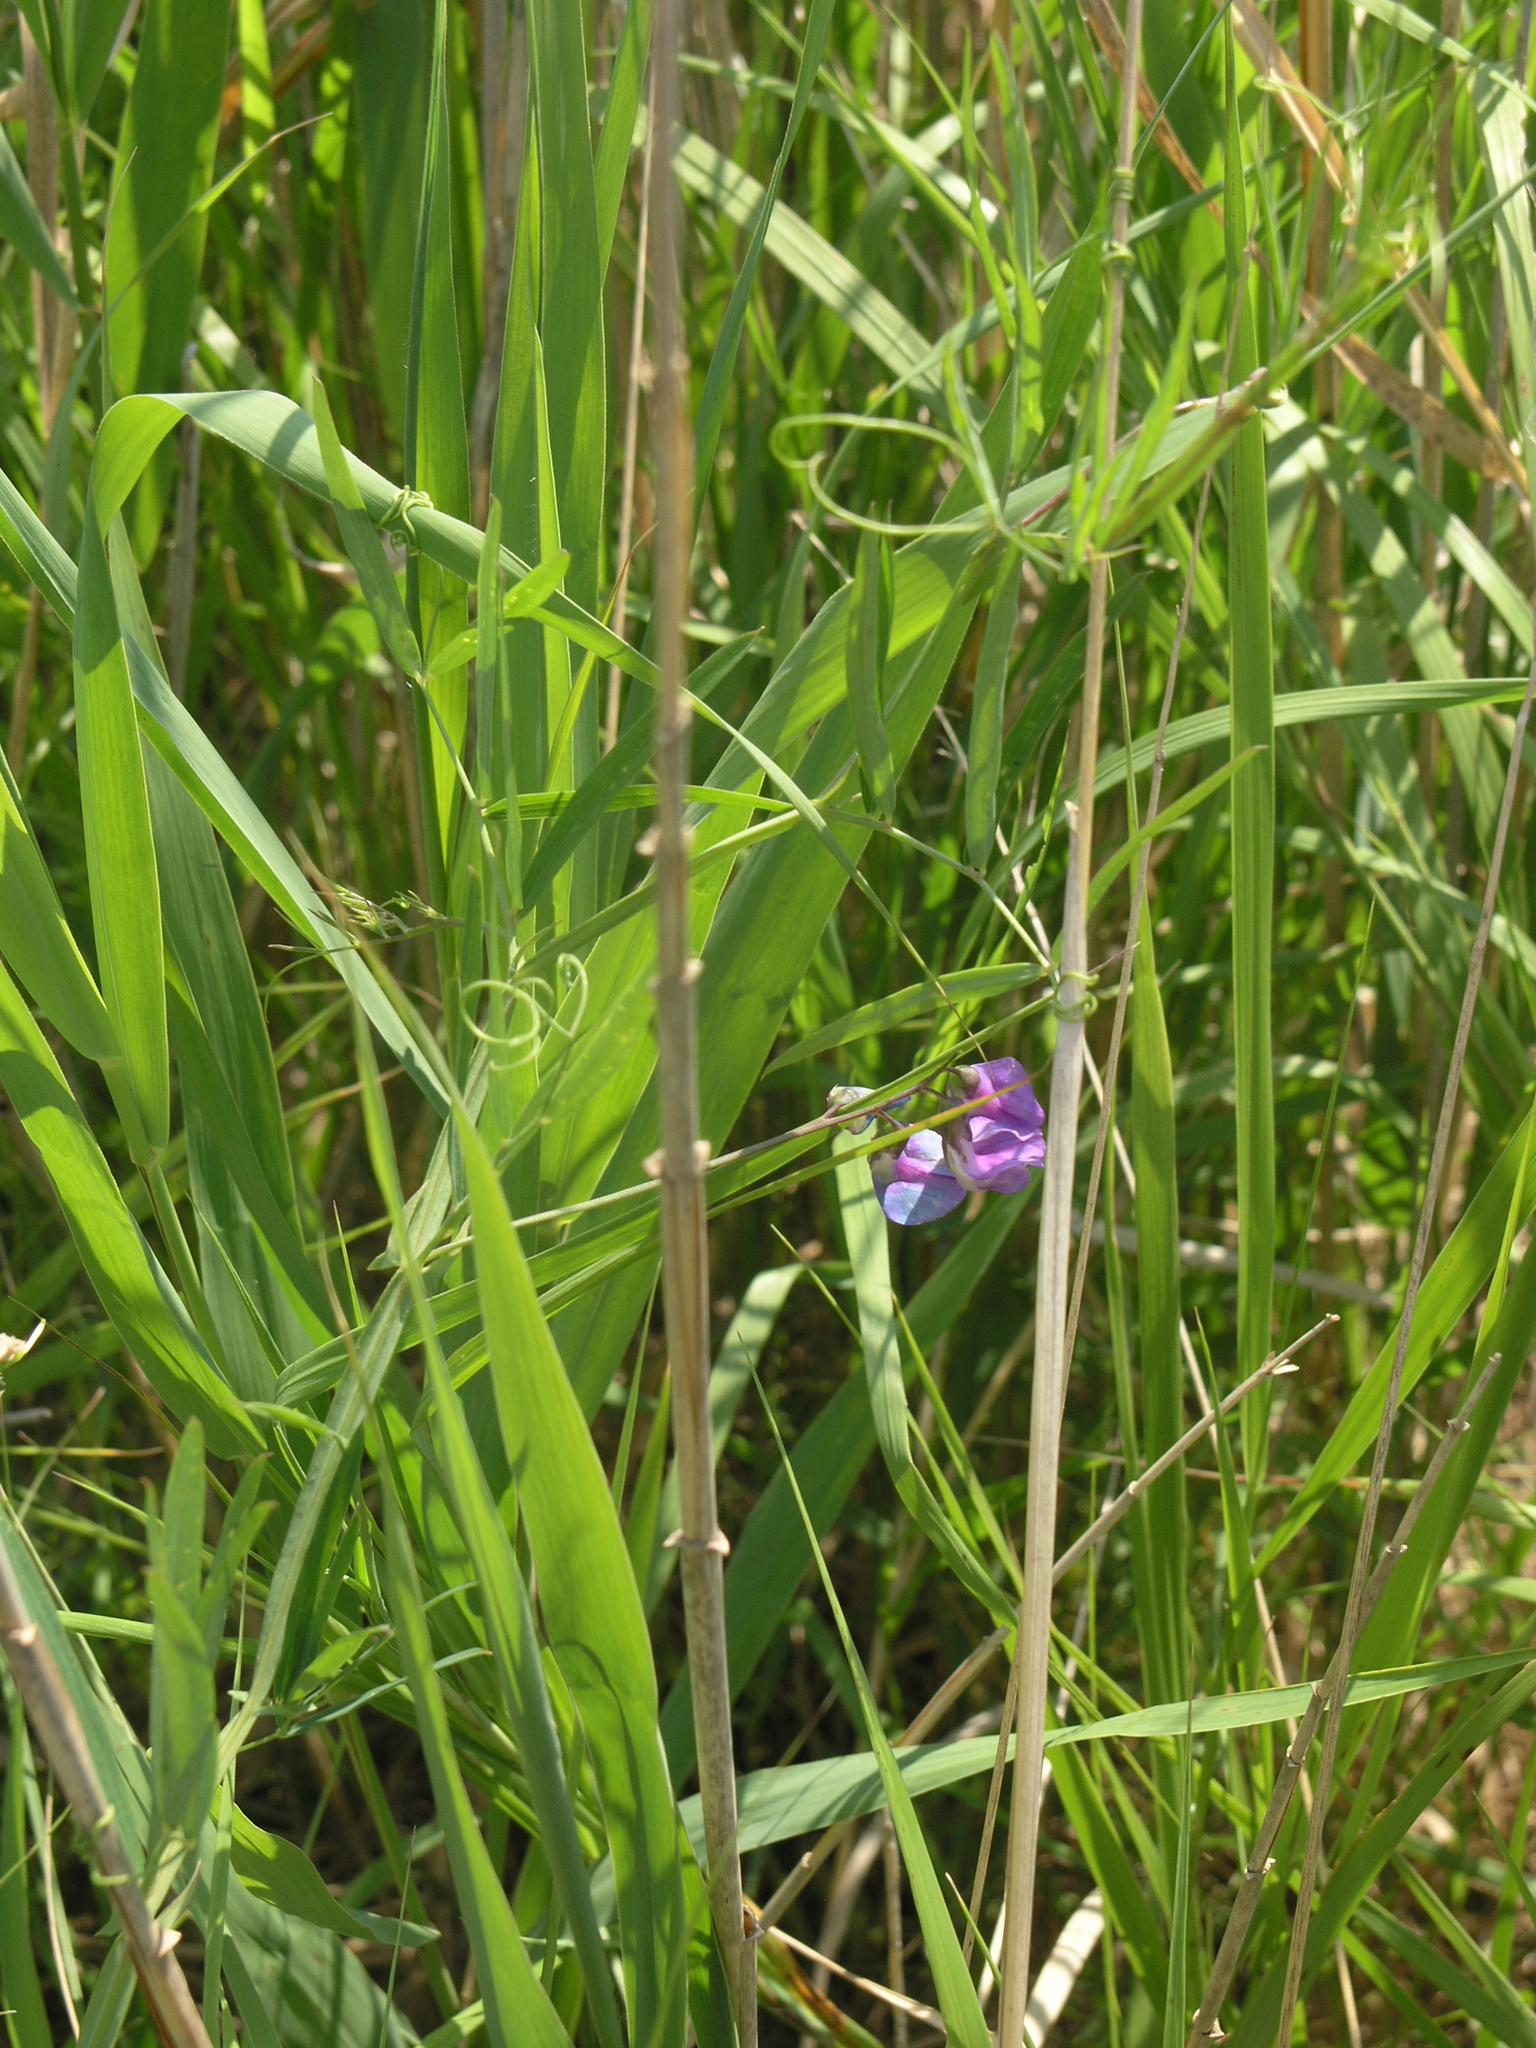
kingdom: Plantae
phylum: Tracheophyta
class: Magnoliopsida
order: Fabales
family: Fabaceae
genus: Lathyrus
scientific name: Lathyrus palustris
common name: Marsh pea
